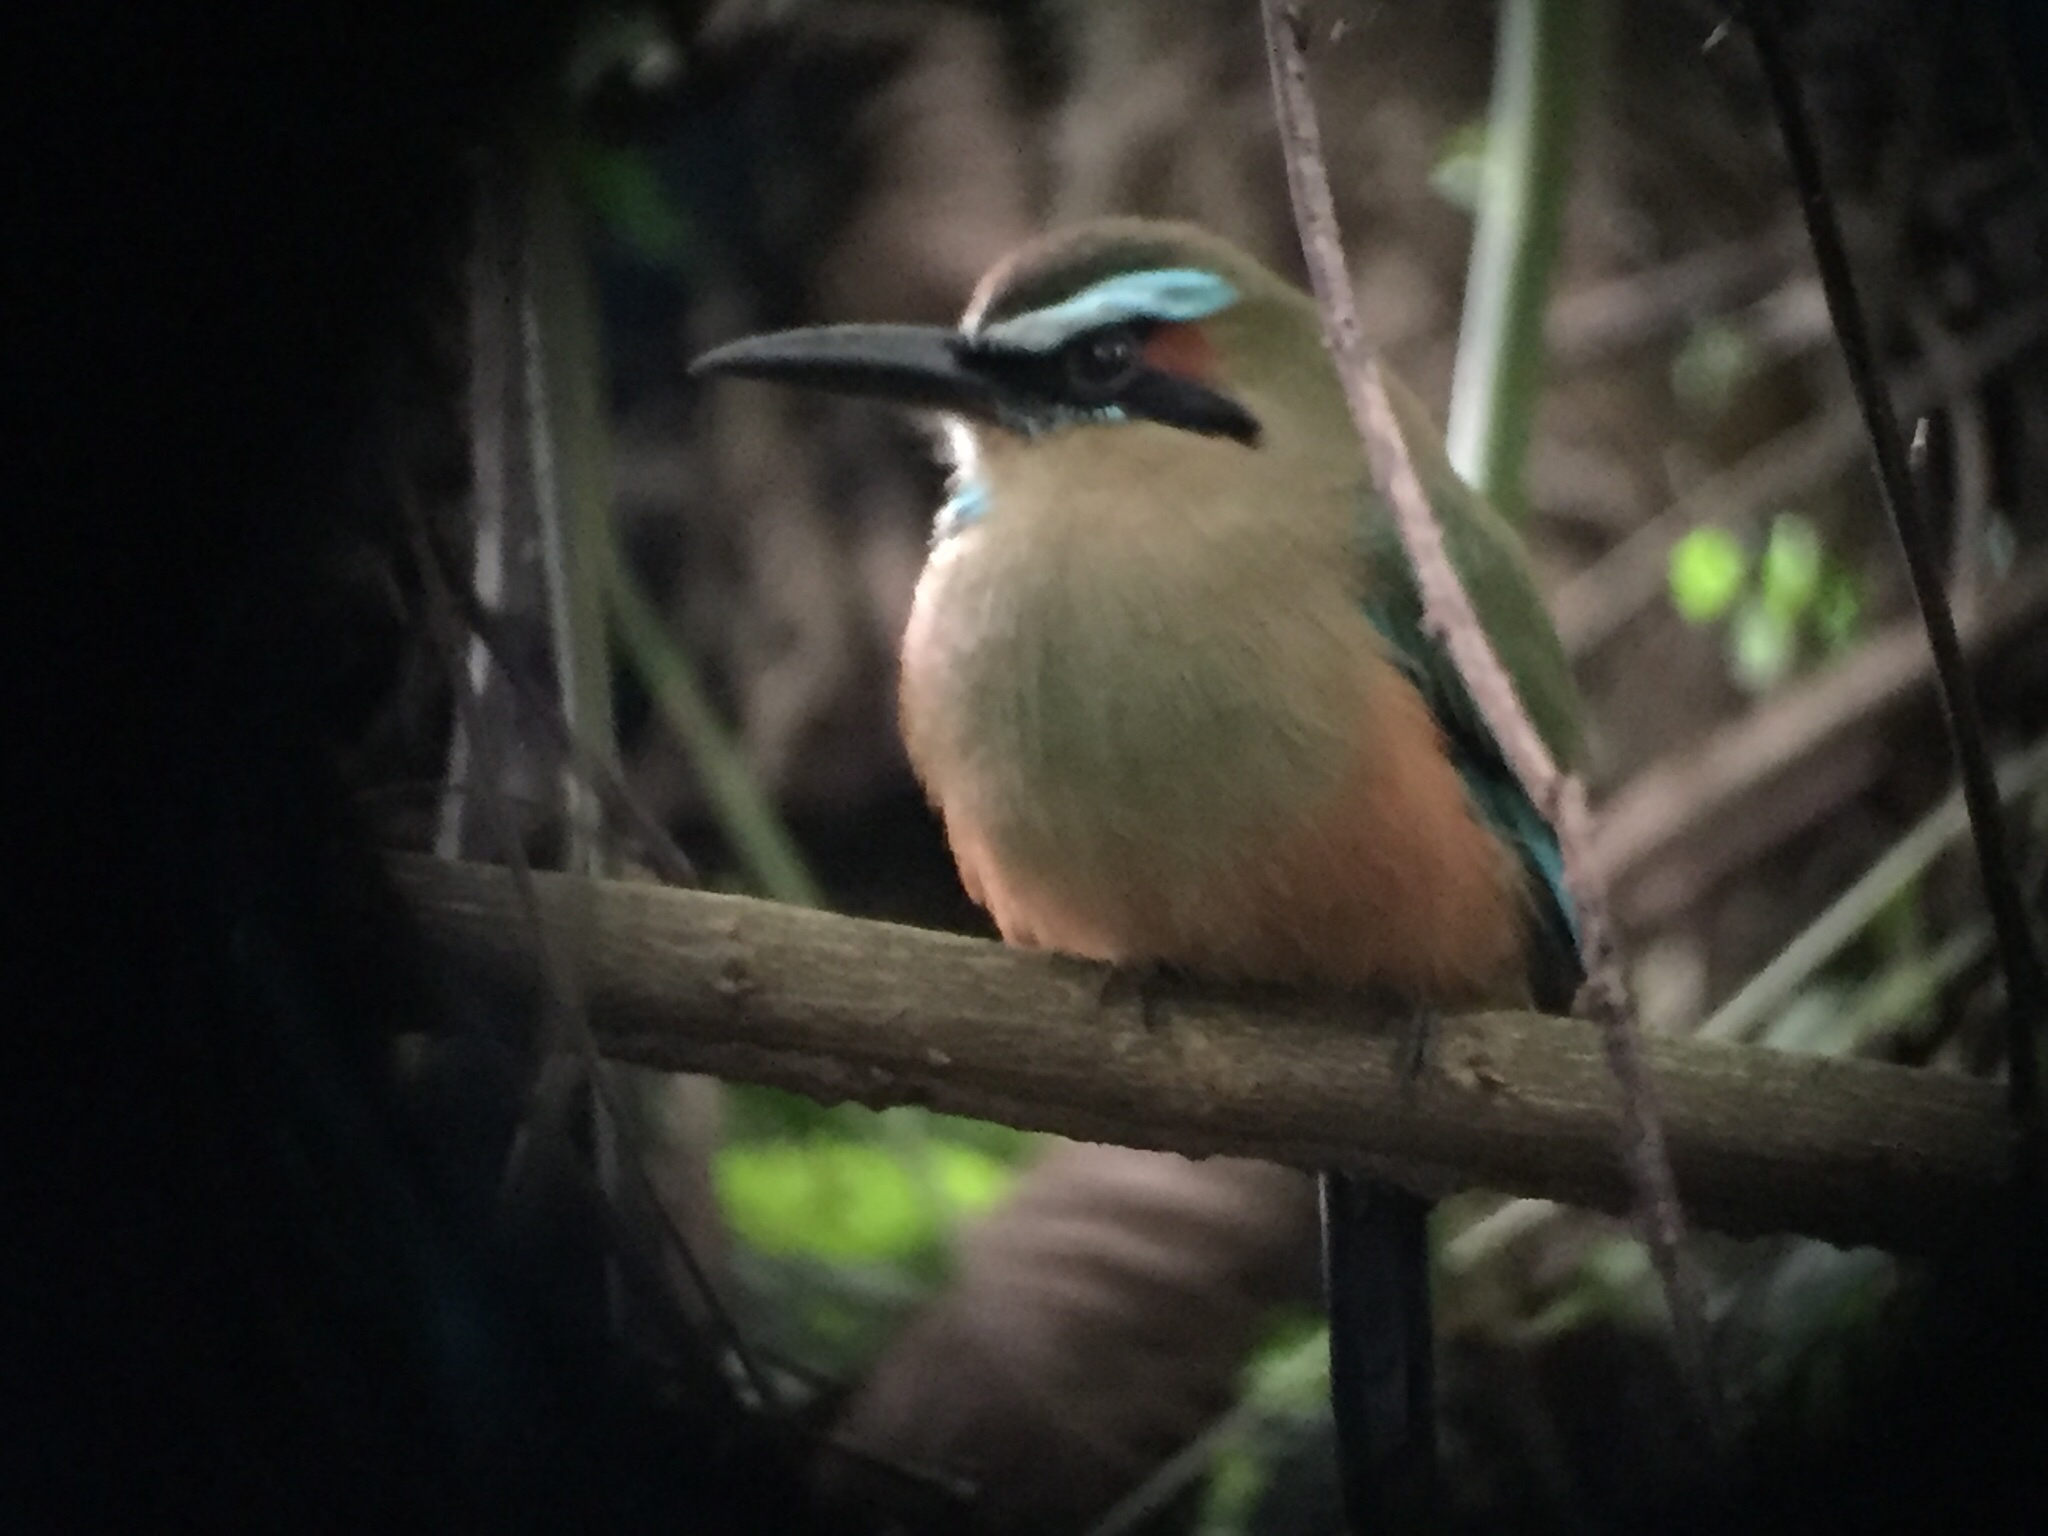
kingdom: Animalia
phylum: Chordata
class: Aves
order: Coraciiformes
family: Momotidae
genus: Eumomota
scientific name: Eumomota superciliosa
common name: Turquoise-browed motmot
